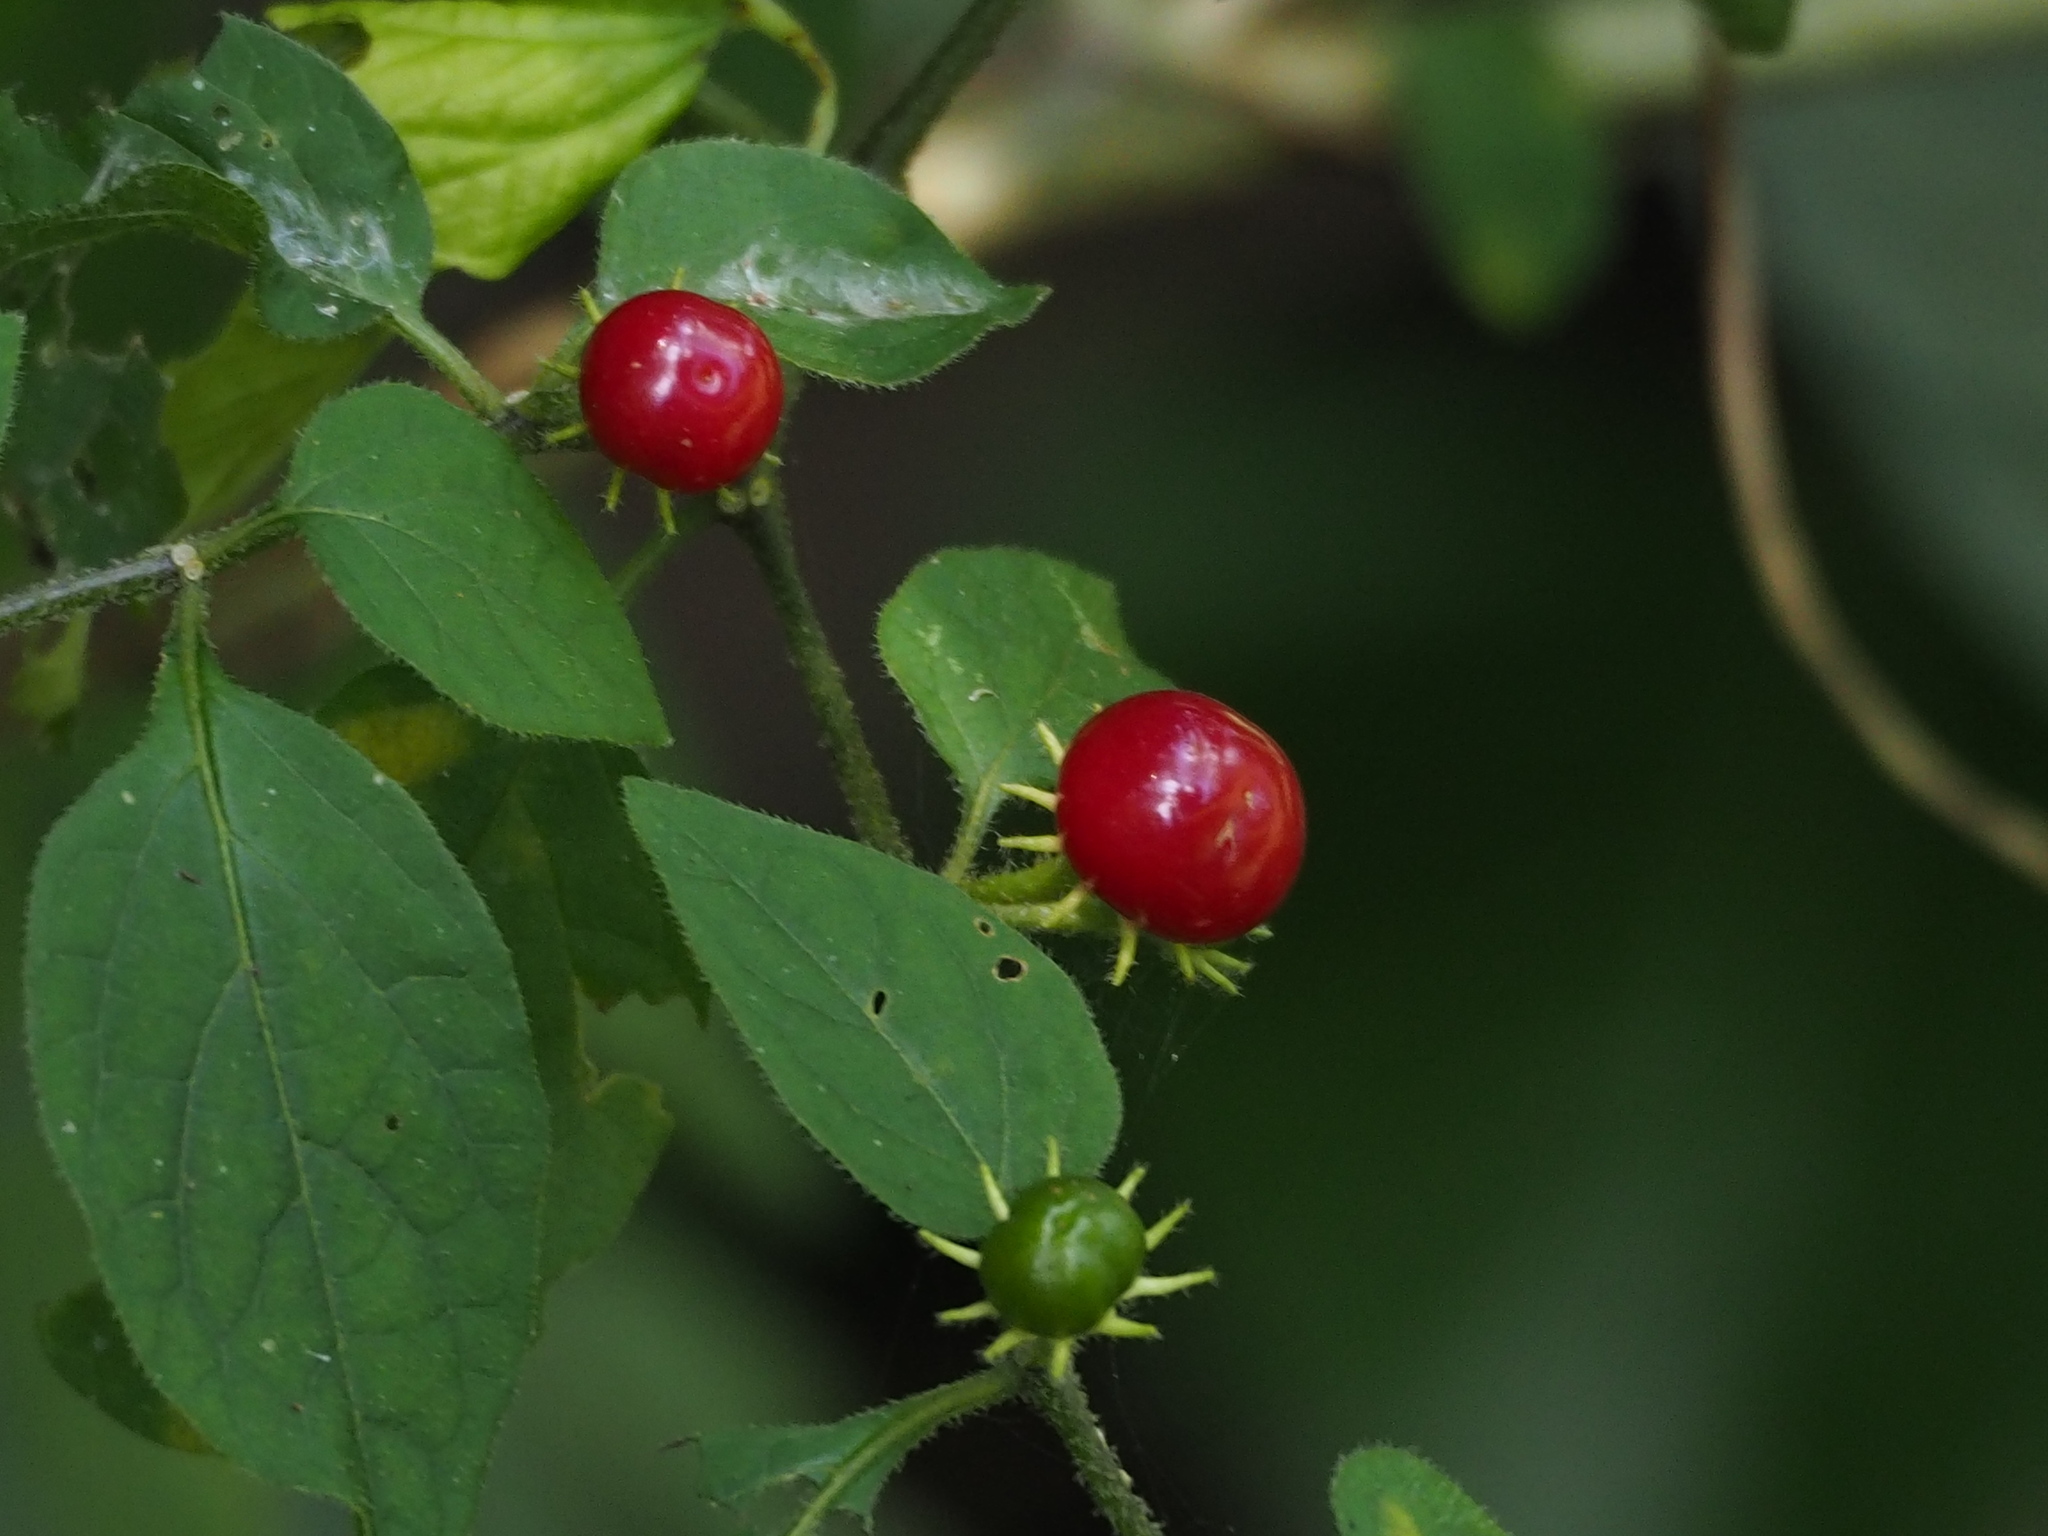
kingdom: Plantae
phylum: Tracheophyta
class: Magnoliopsida
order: Solanales
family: Solanaceae
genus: Lycianthes
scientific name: Lycianthes biflora
